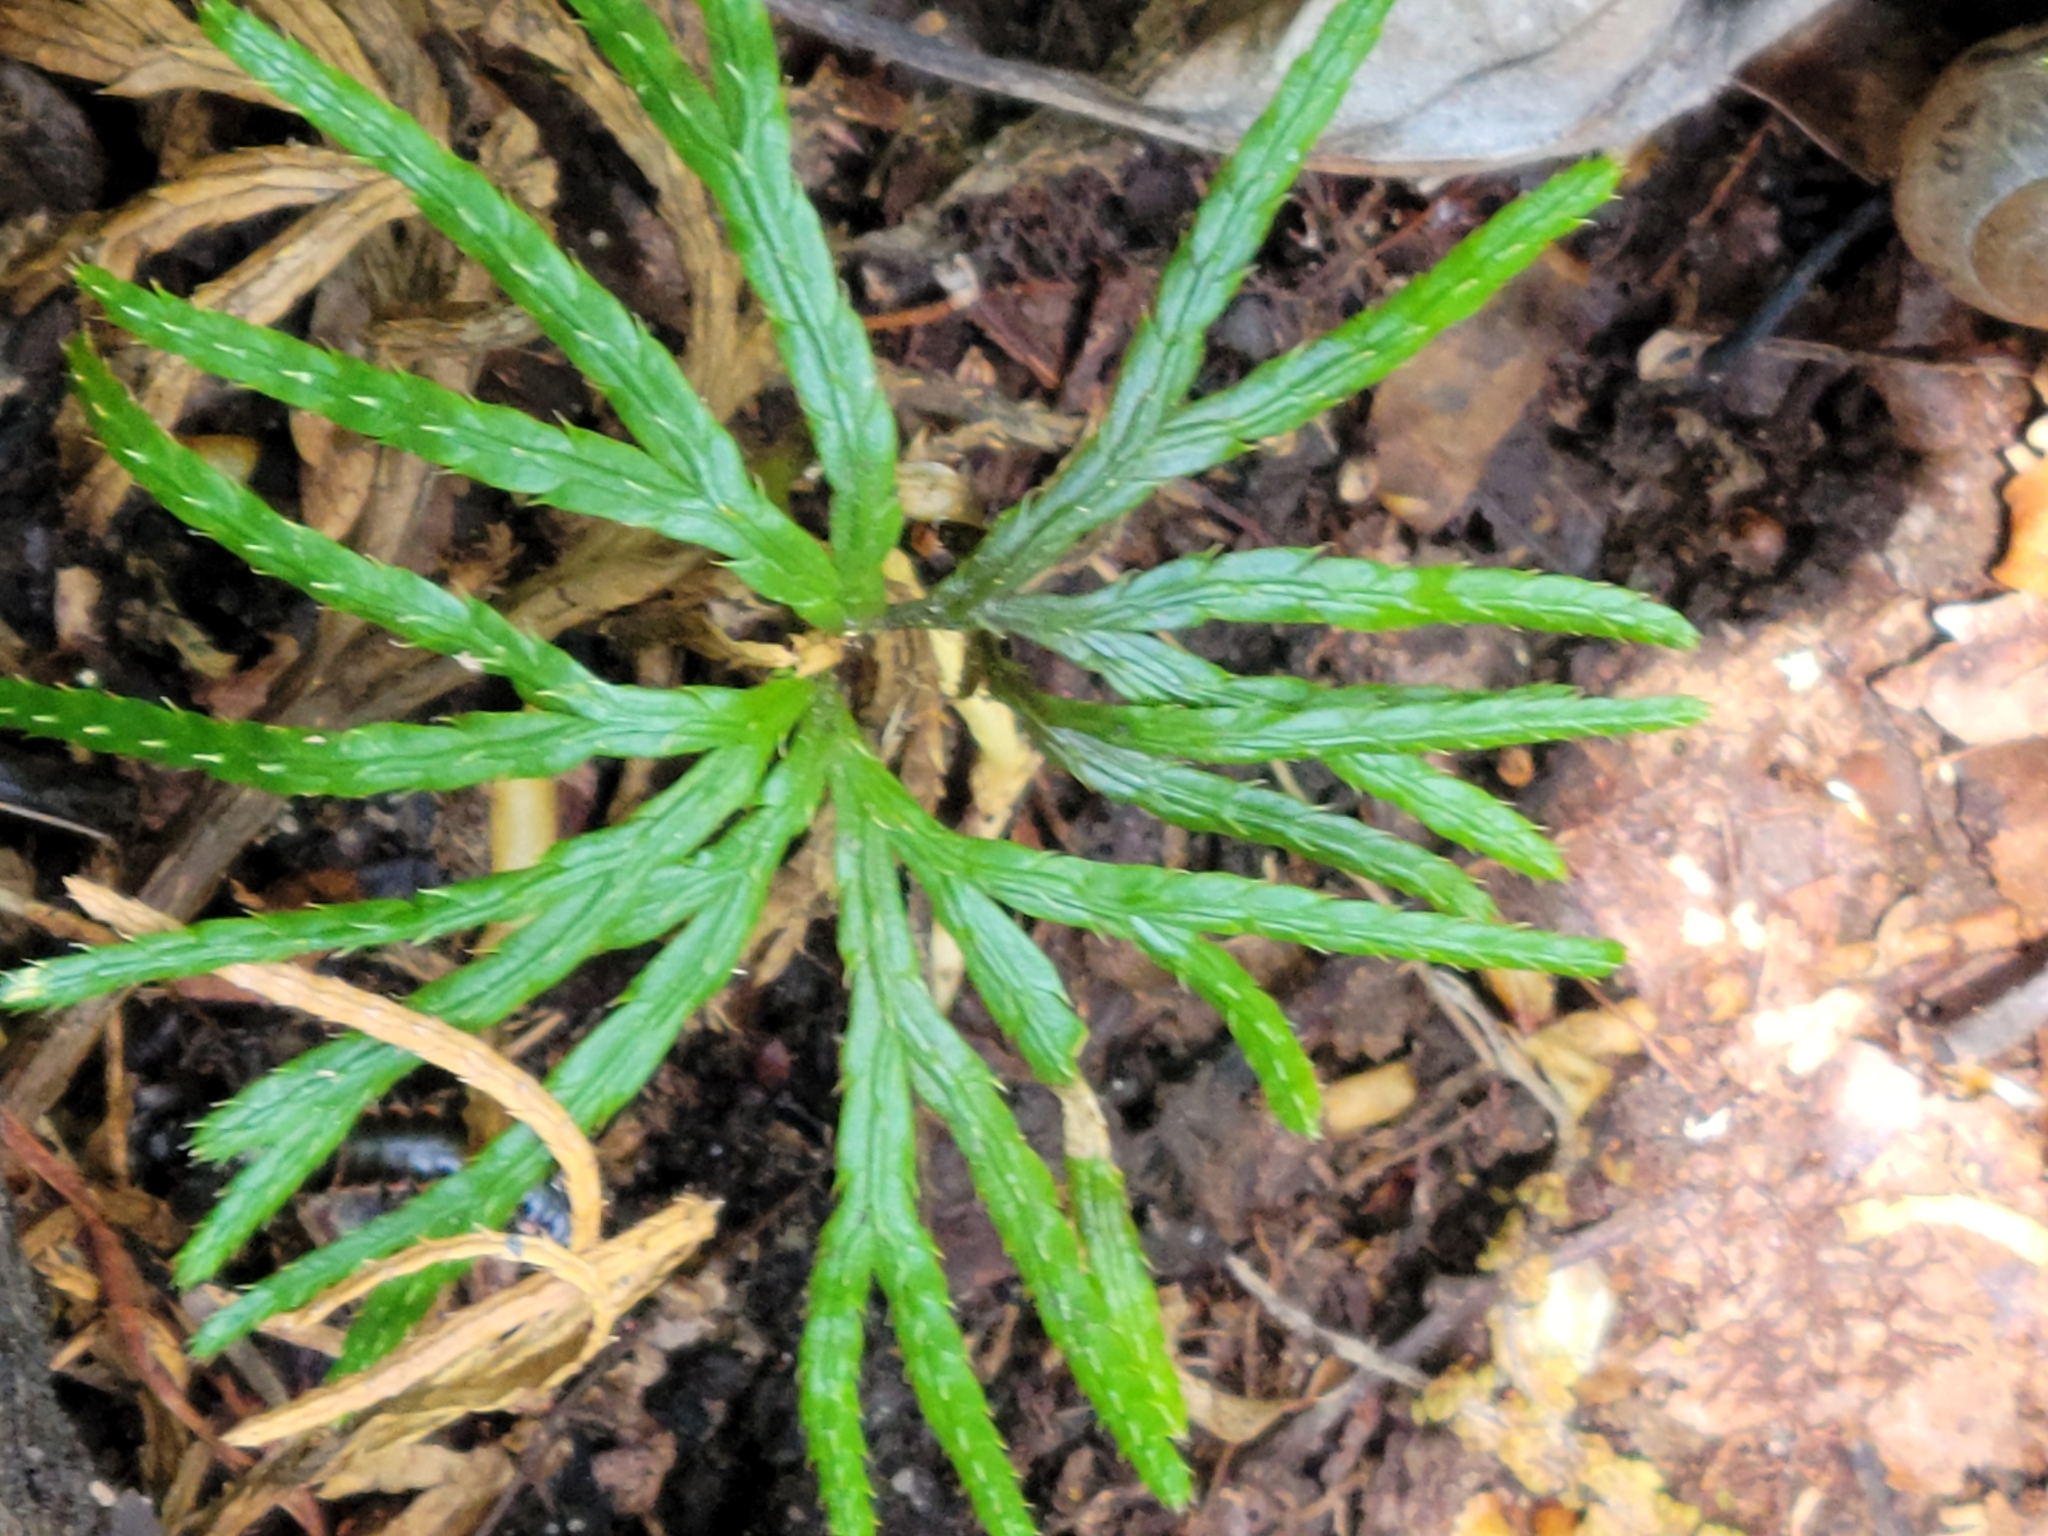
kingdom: Plantae
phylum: Tracheophyta
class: Lycopodiopsida
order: Lycopodiales
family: Lycopodiaceae
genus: Diphasiastrum
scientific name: Diphasiastrum digitatum
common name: Southern running-pine
